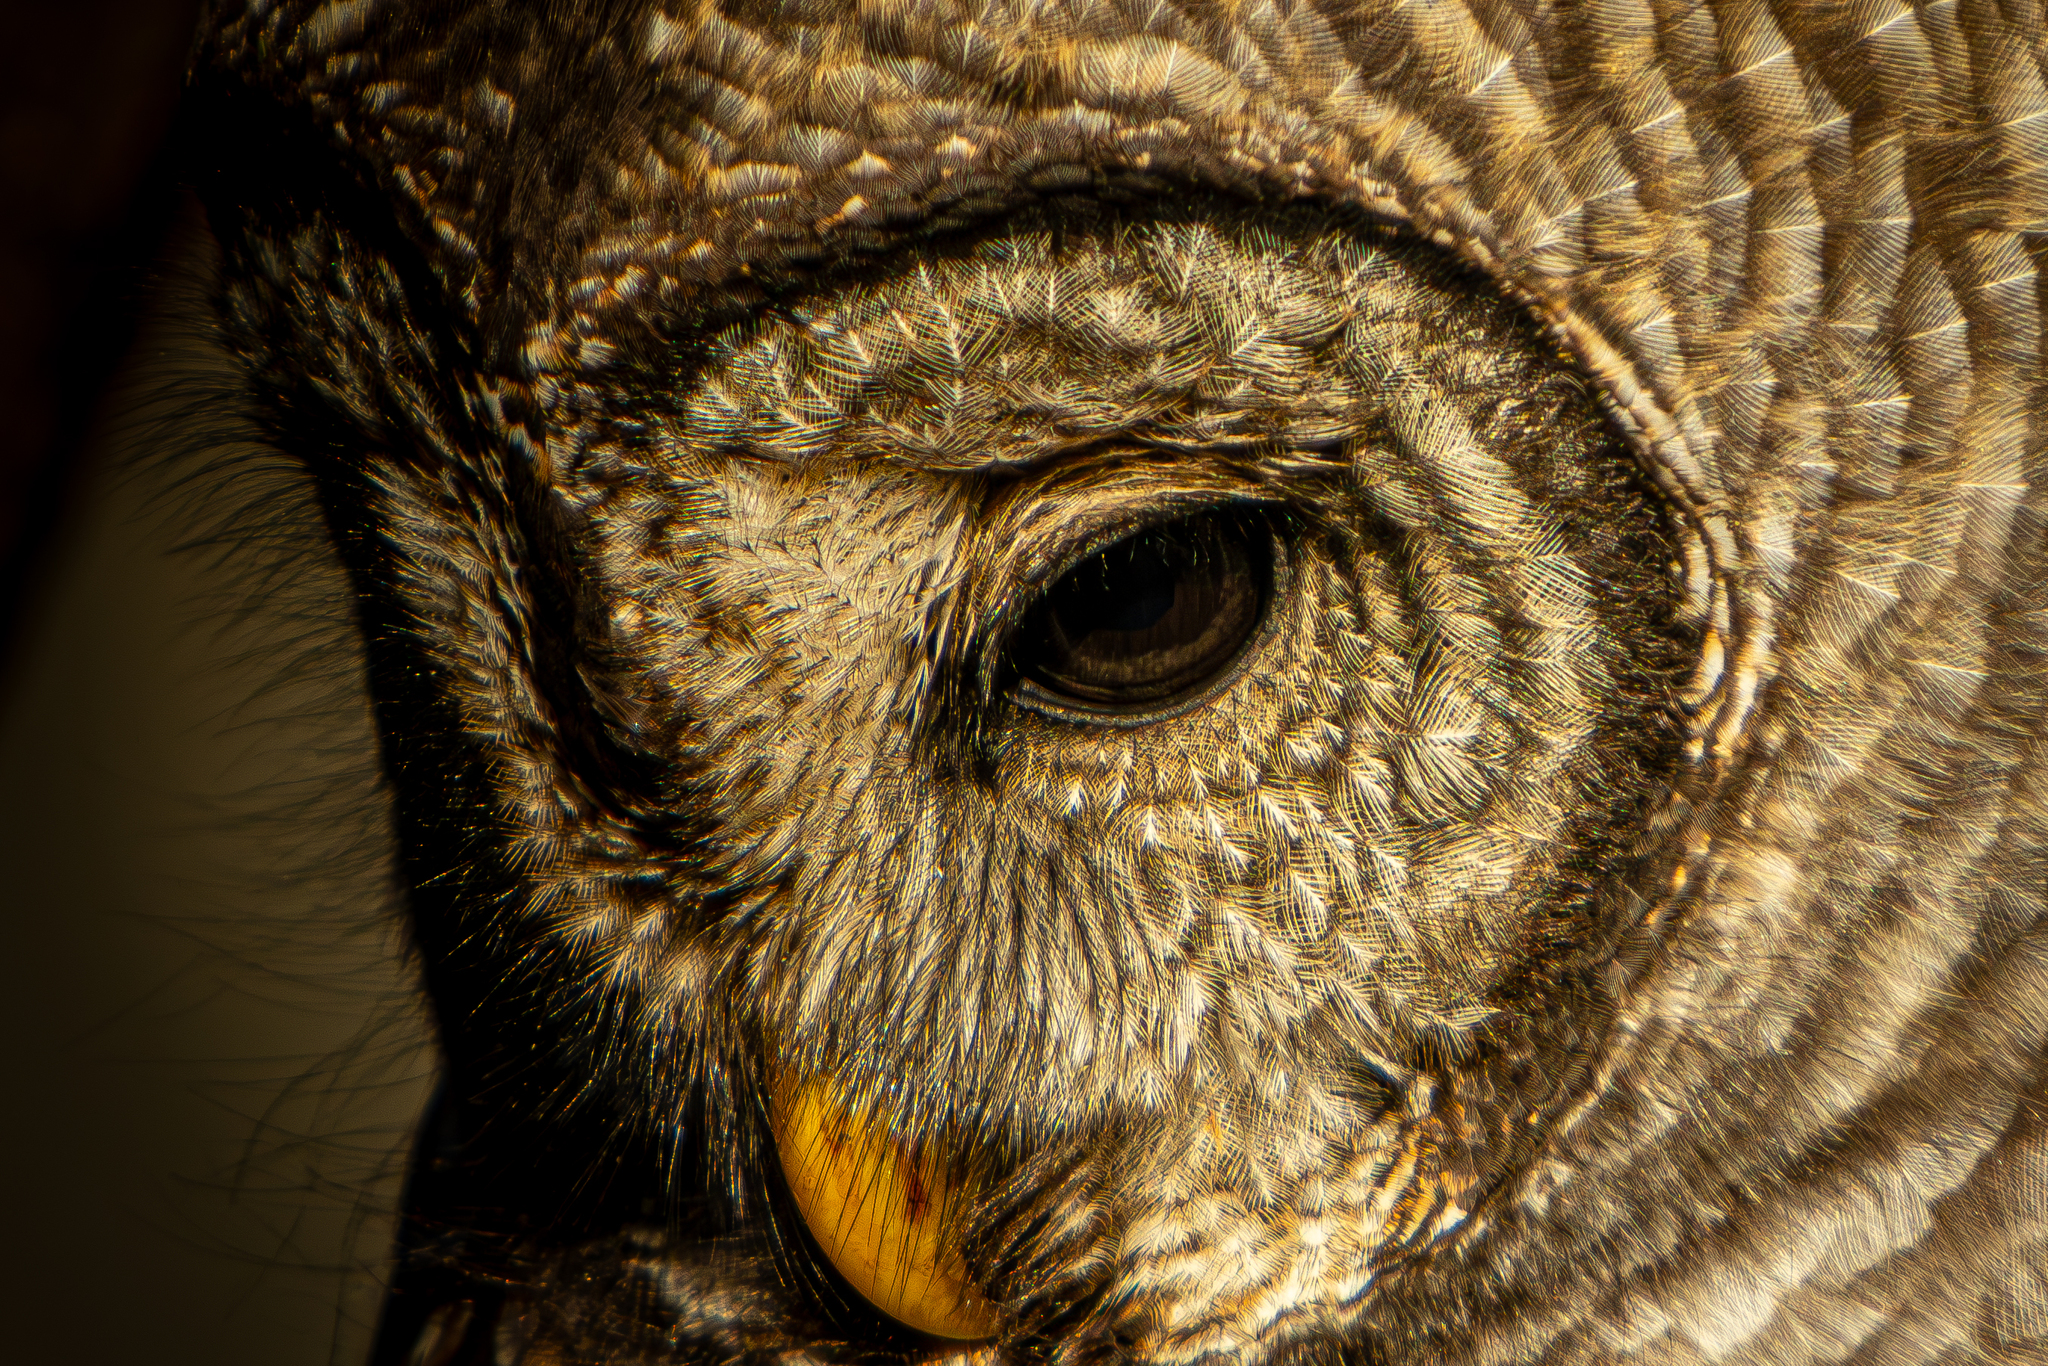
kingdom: Animalia
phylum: Chordata
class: Aves
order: Strigiformes
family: Strigidae
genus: Strix
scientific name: Strix varia
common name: Barred owl
